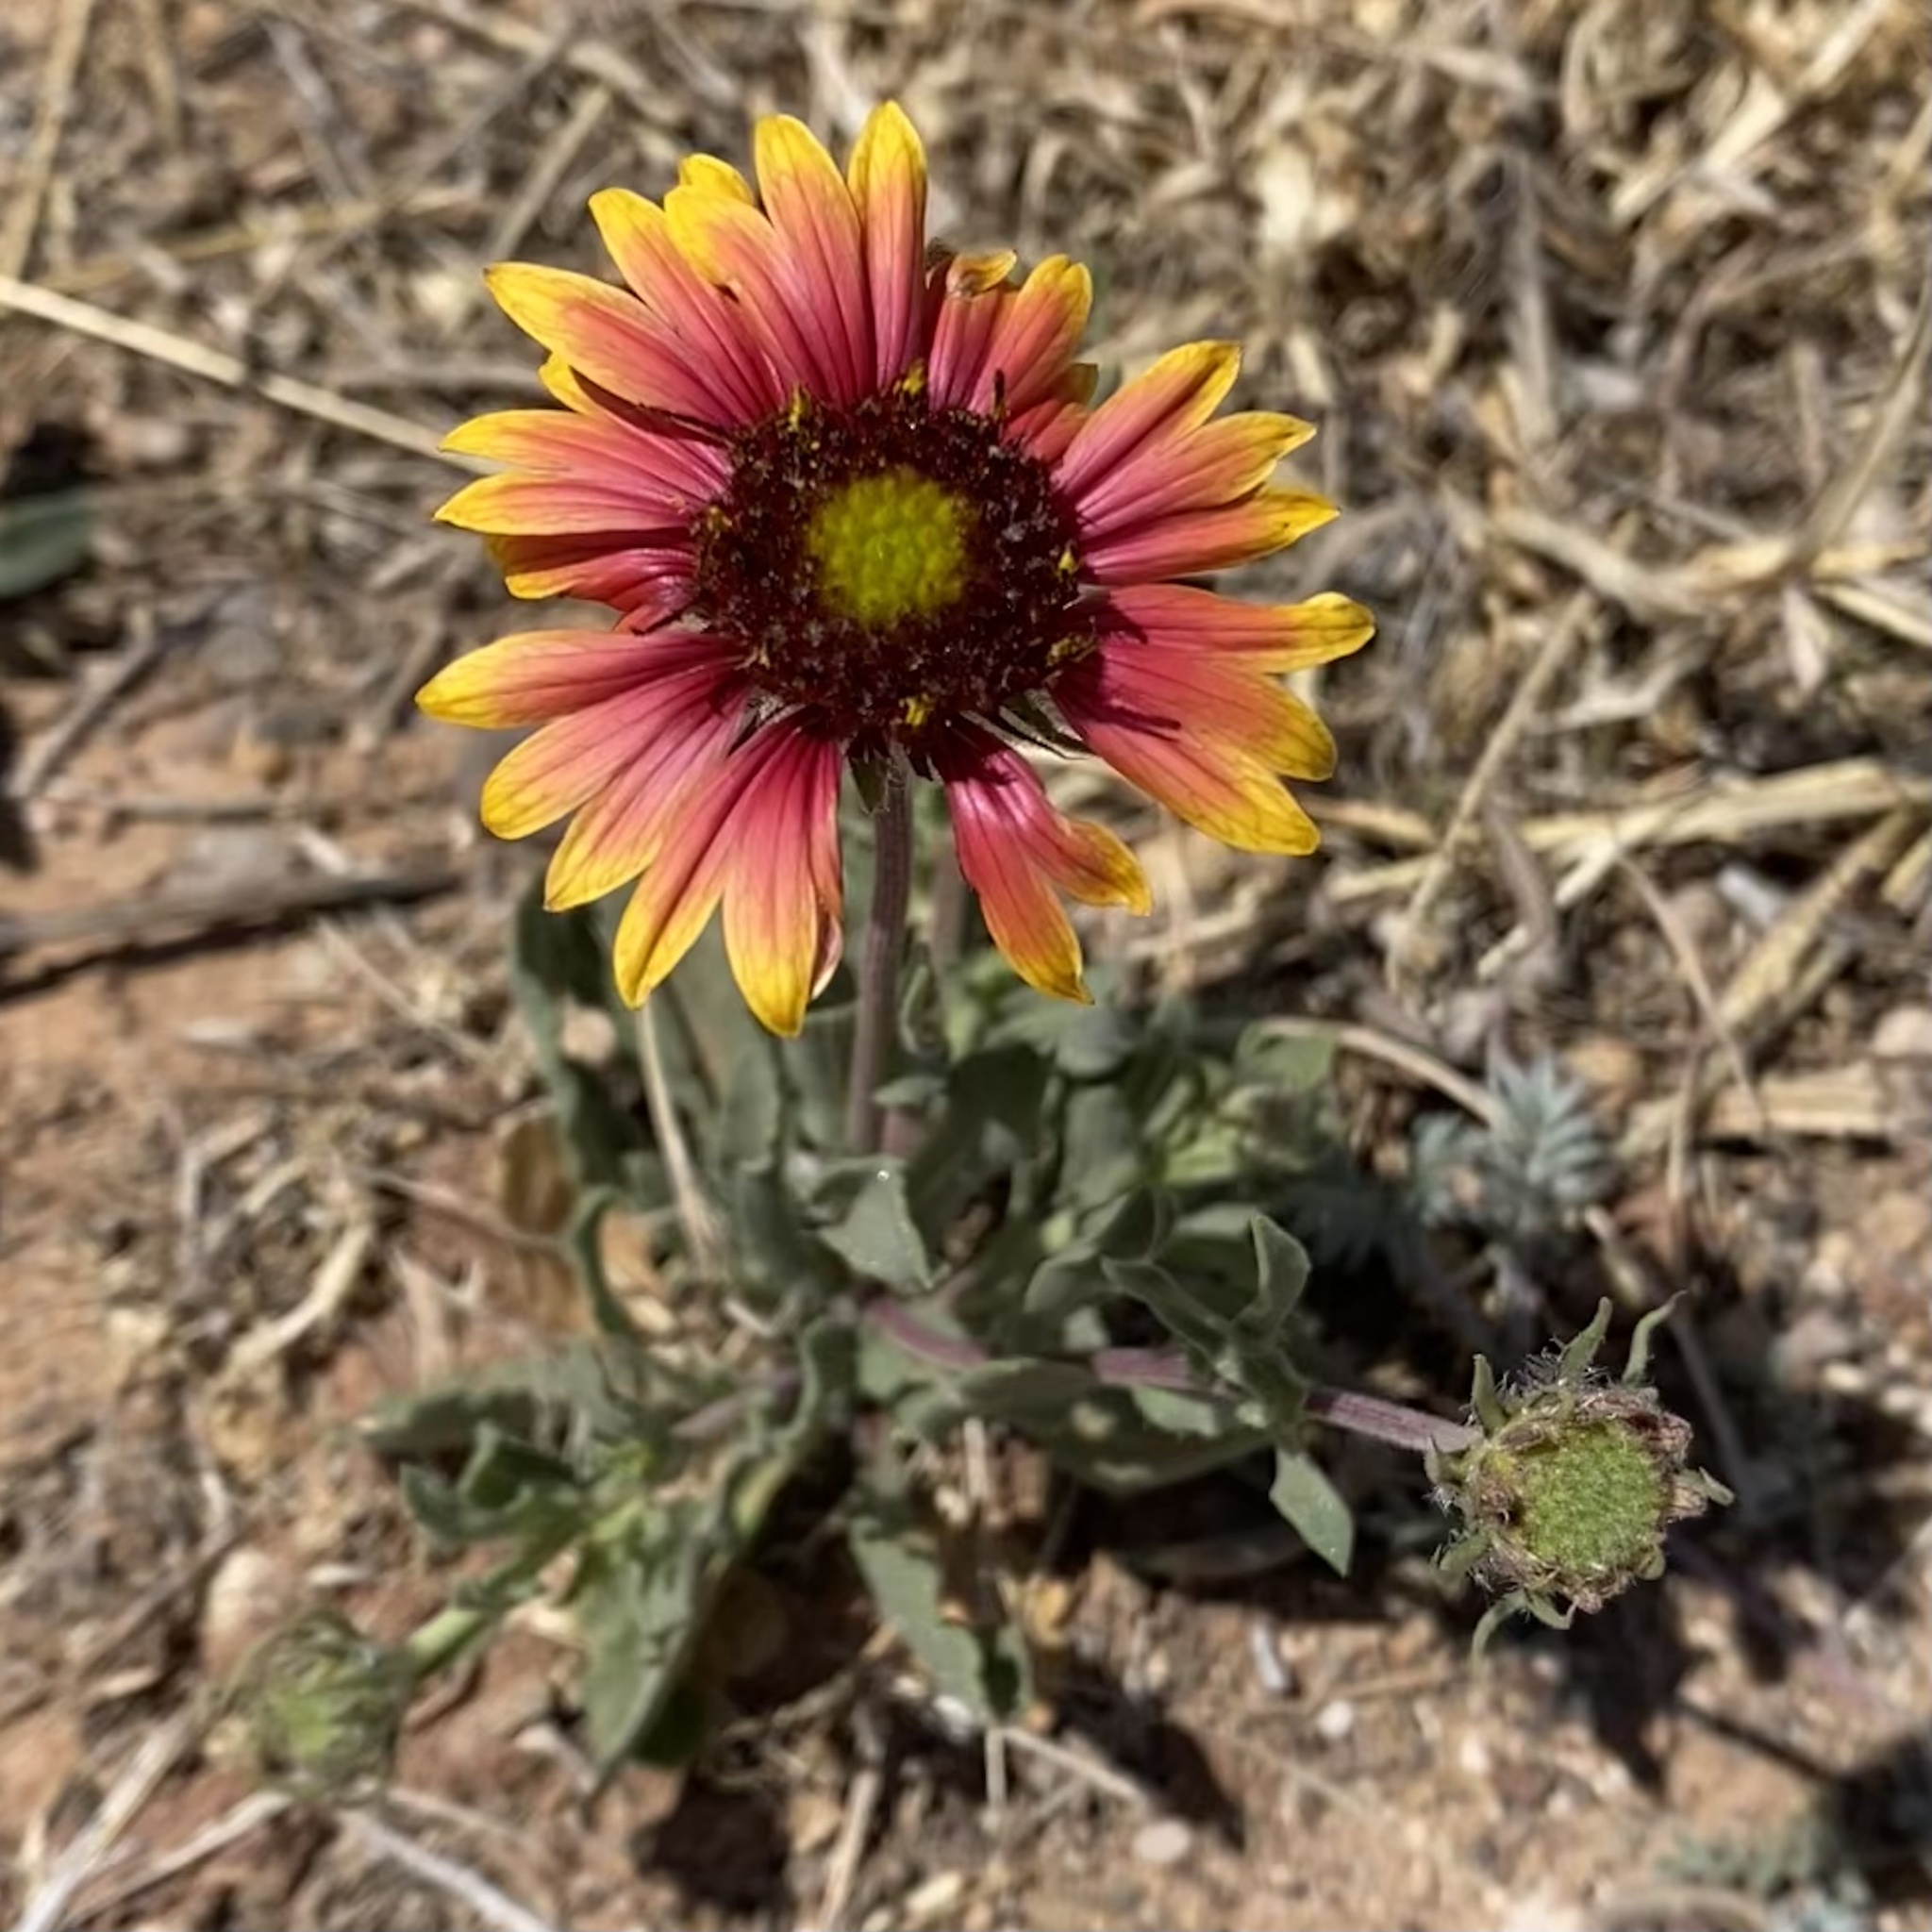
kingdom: Plantae
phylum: Tracheophyta
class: Magnoliopsida
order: Asterales
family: Asteraceae
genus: Gaillardia
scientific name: Gaillardia pulchella
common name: Firewheel
